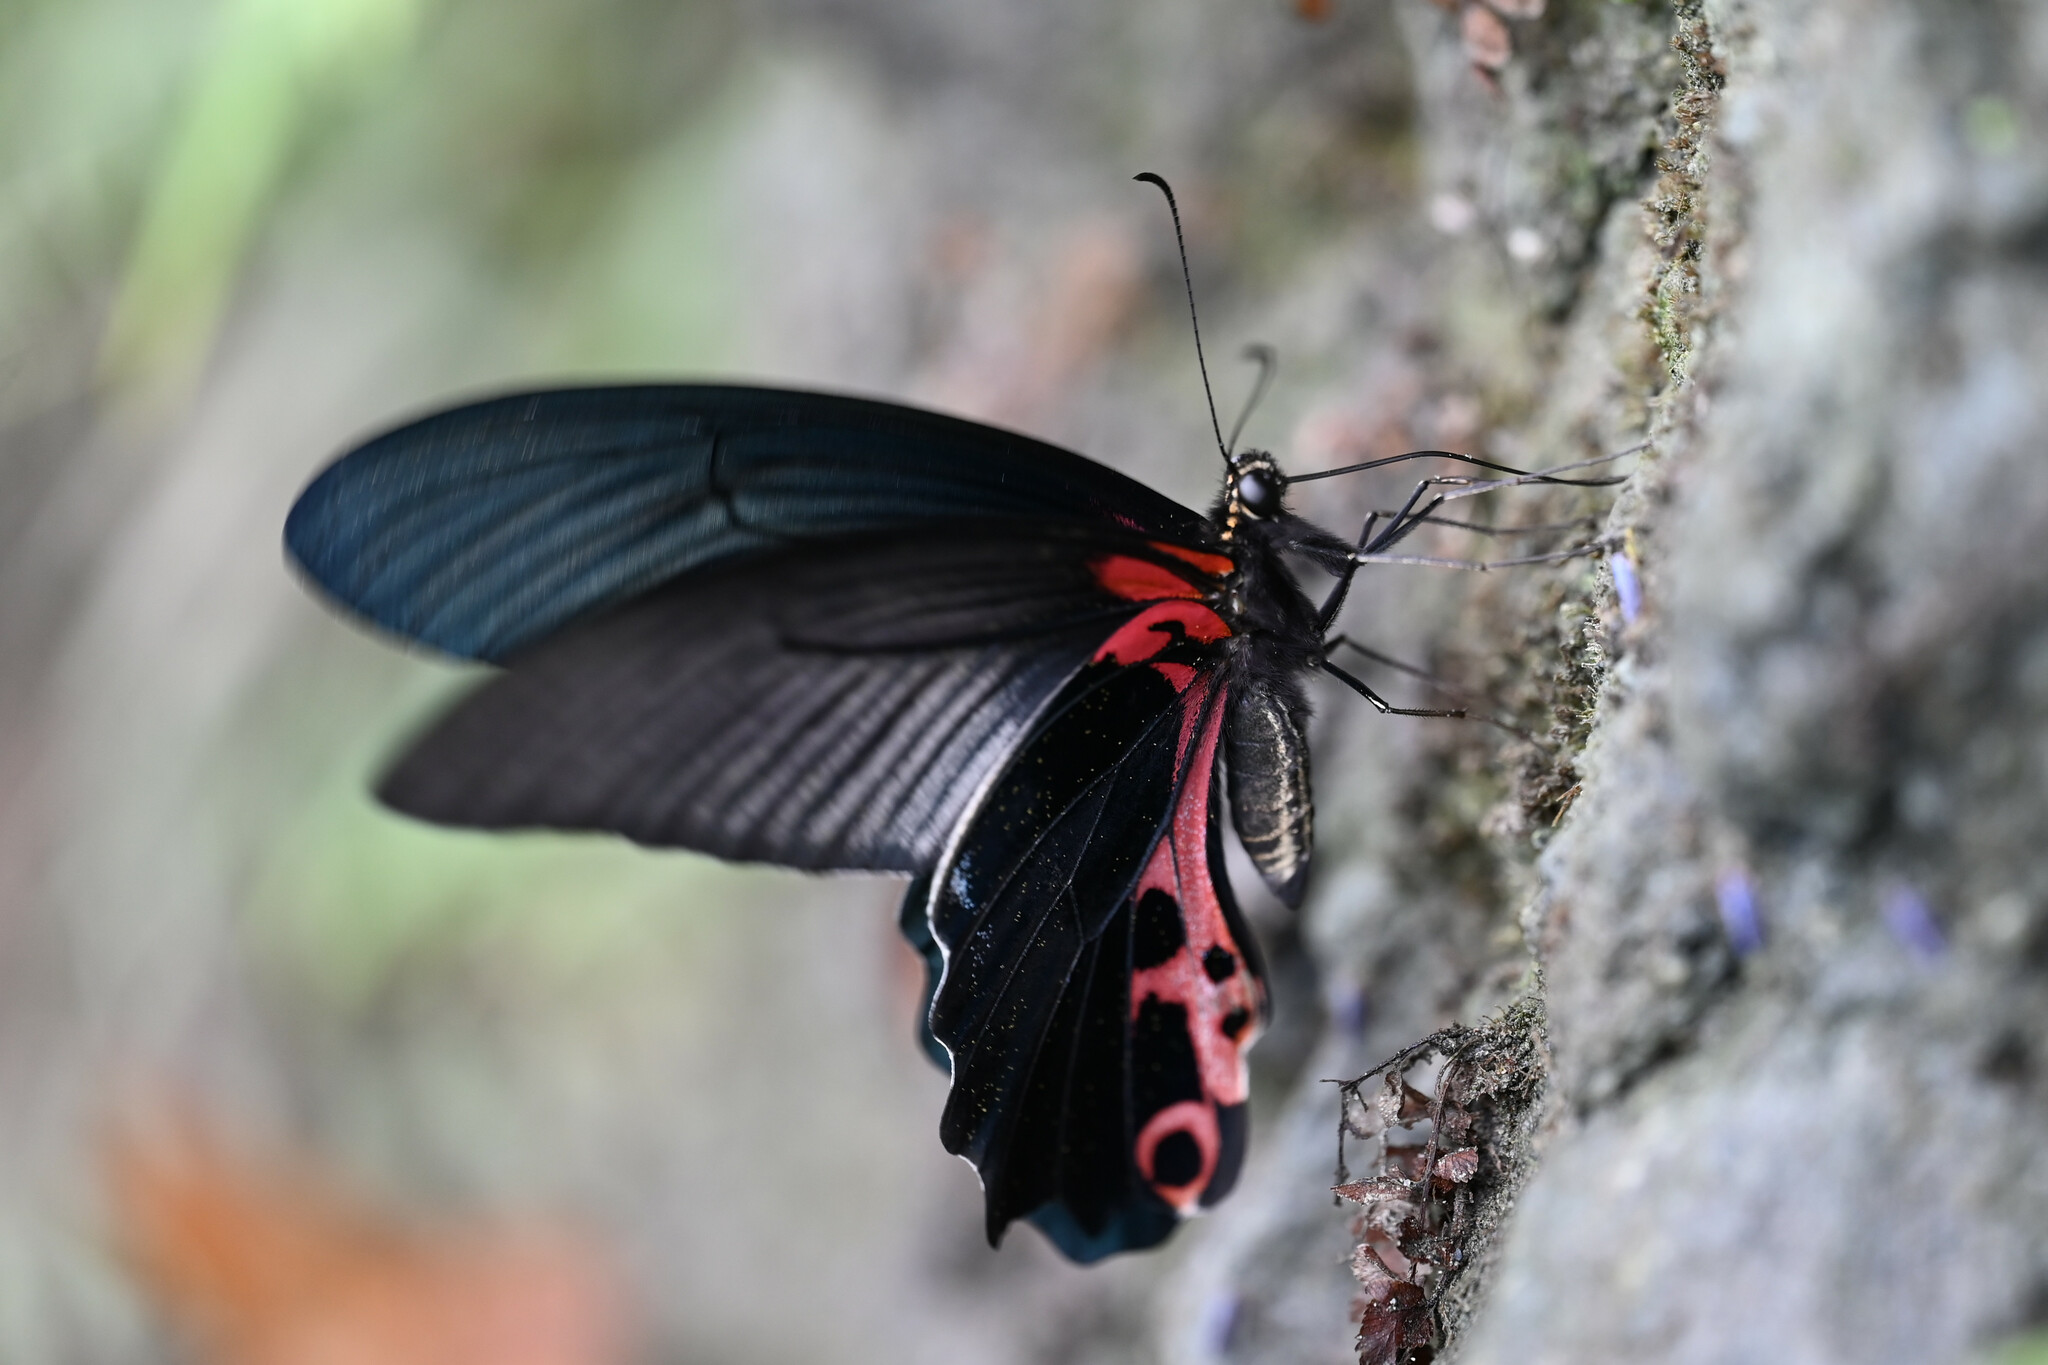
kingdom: Animalia
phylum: Arthropoda
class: Insecta
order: Lepidoptera
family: Papilionidae
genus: Papilio
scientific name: Papilio alcmenor
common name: Redbreast
